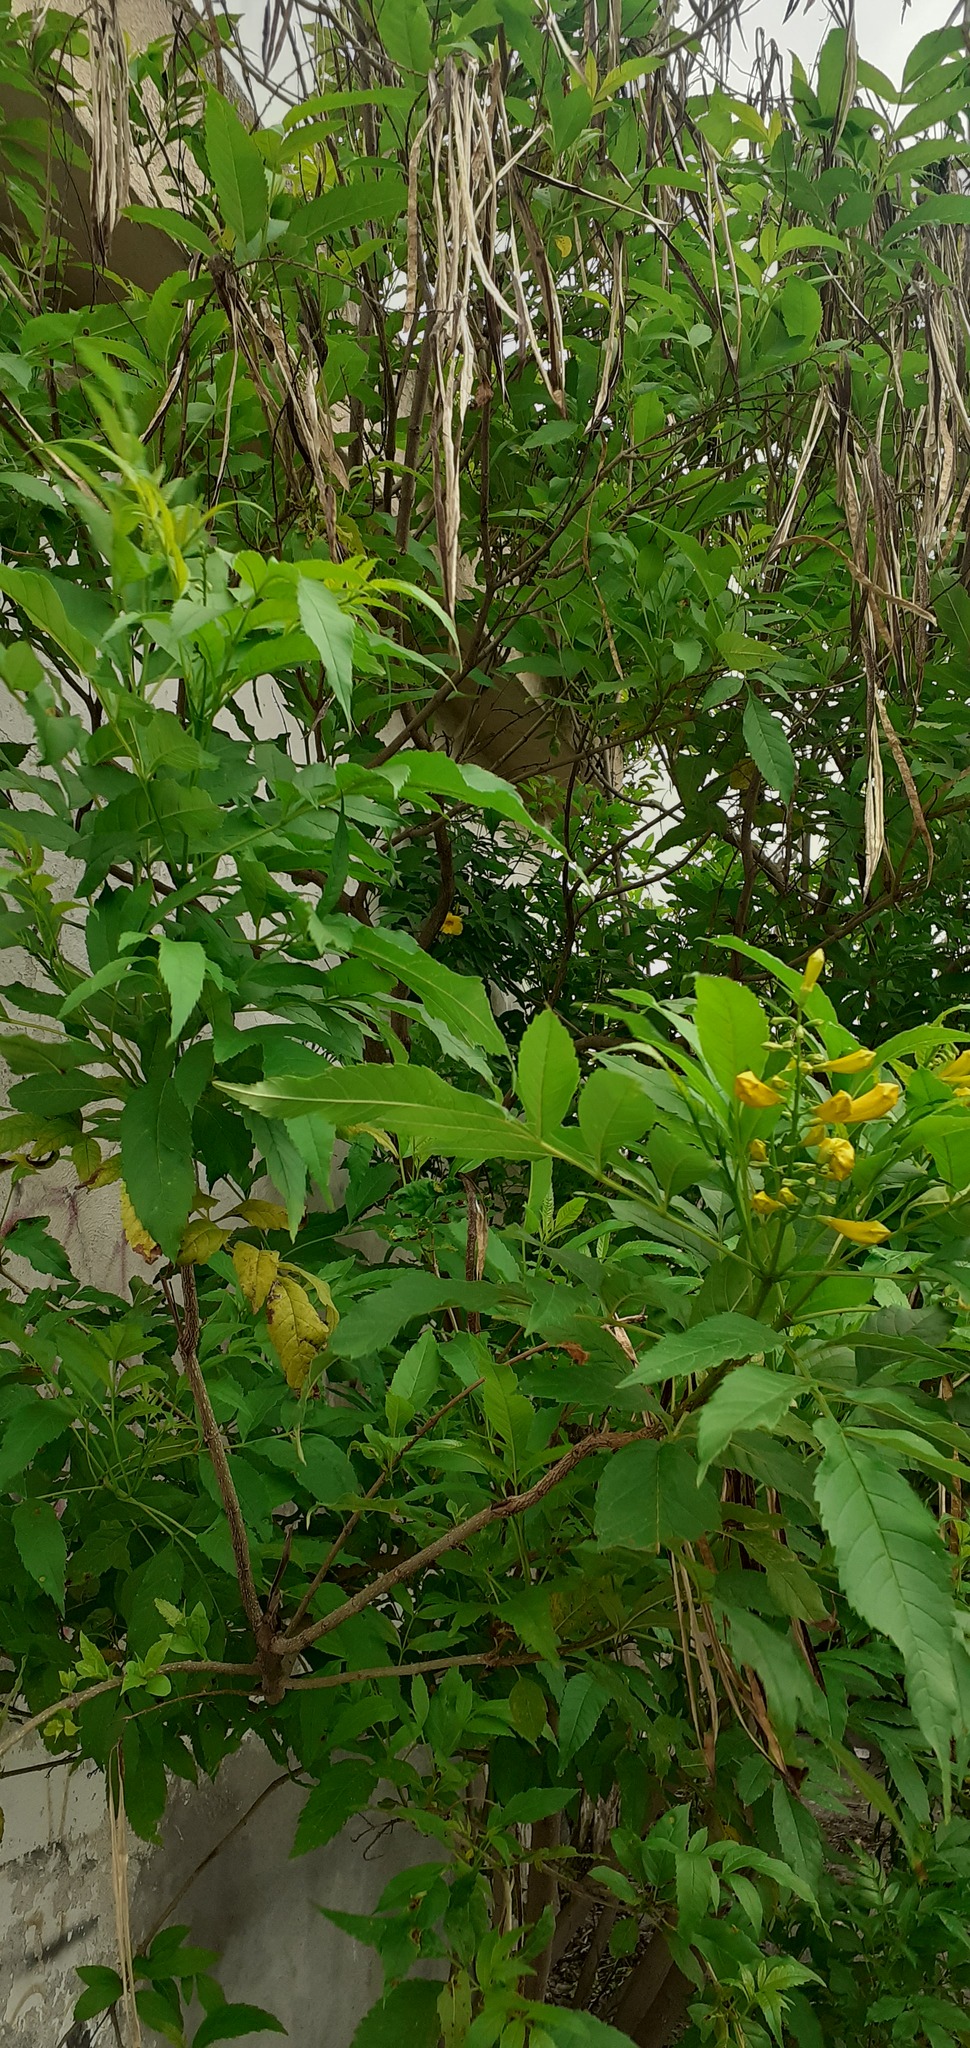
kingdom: Plantae
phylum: Tracheophyta
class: Magnoliopsida
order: Lamiales
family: Bignoniaceae
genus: Tecoma
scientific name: Tecoma stans
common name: Yellow trumpetbush
